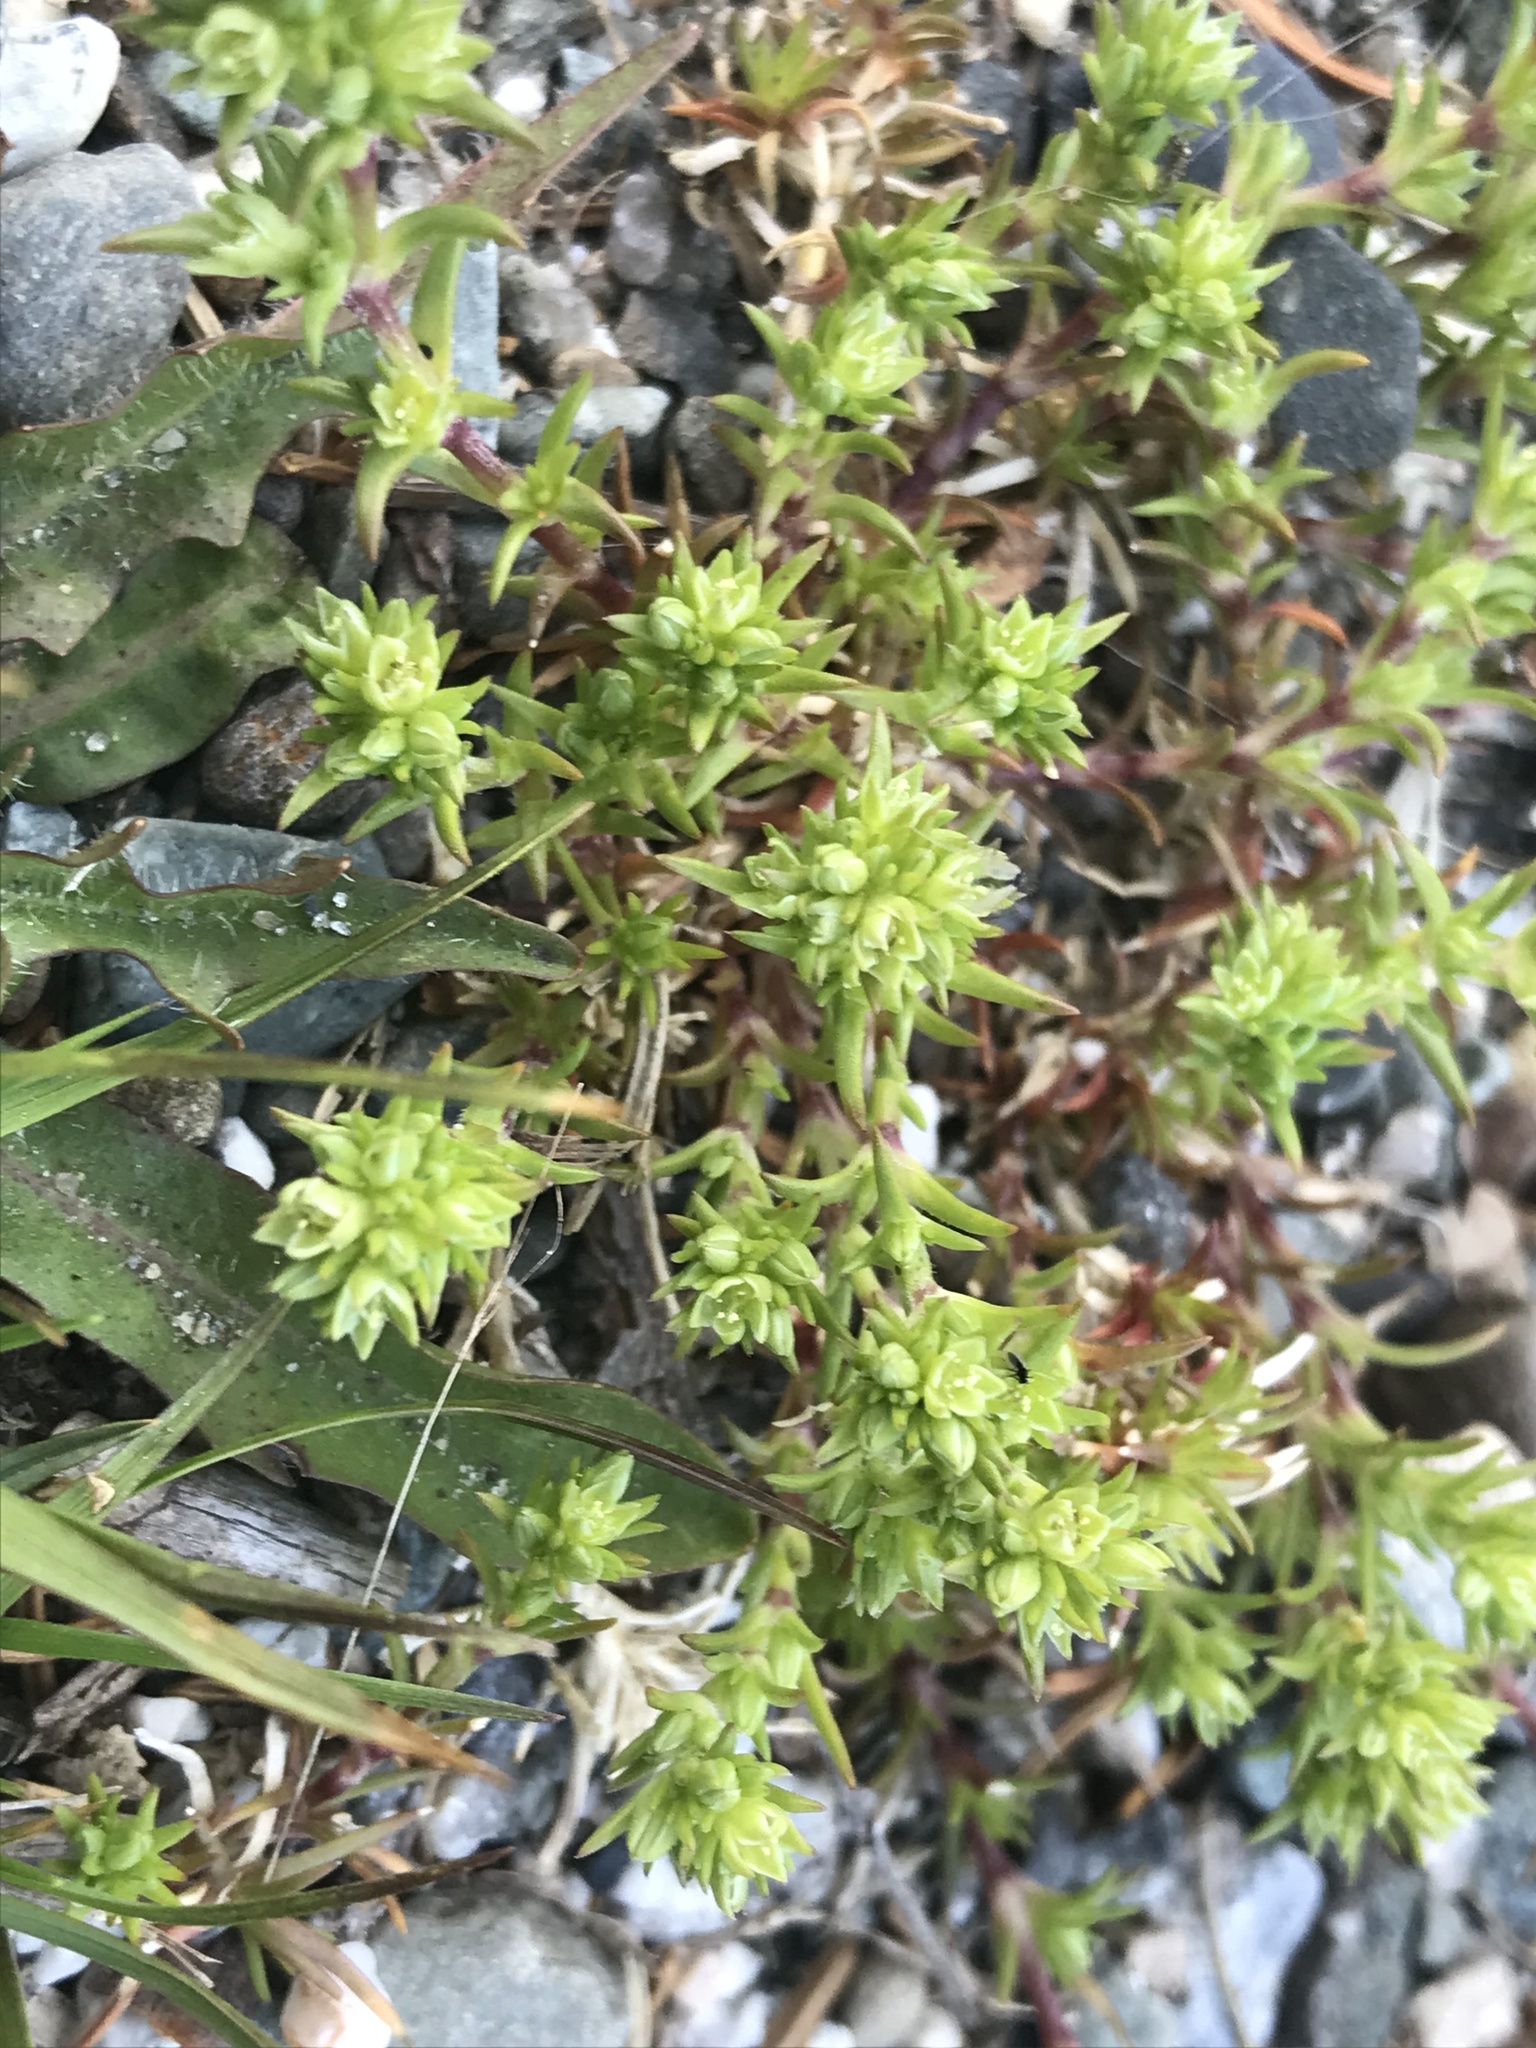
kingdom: Plantae
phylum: Tracheophyta
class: Magnoliopsida
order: Caryophyllales
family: Caryophyllaceae
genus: Scleranthus
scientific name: Scleranthus annuus
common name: Annual knawel
